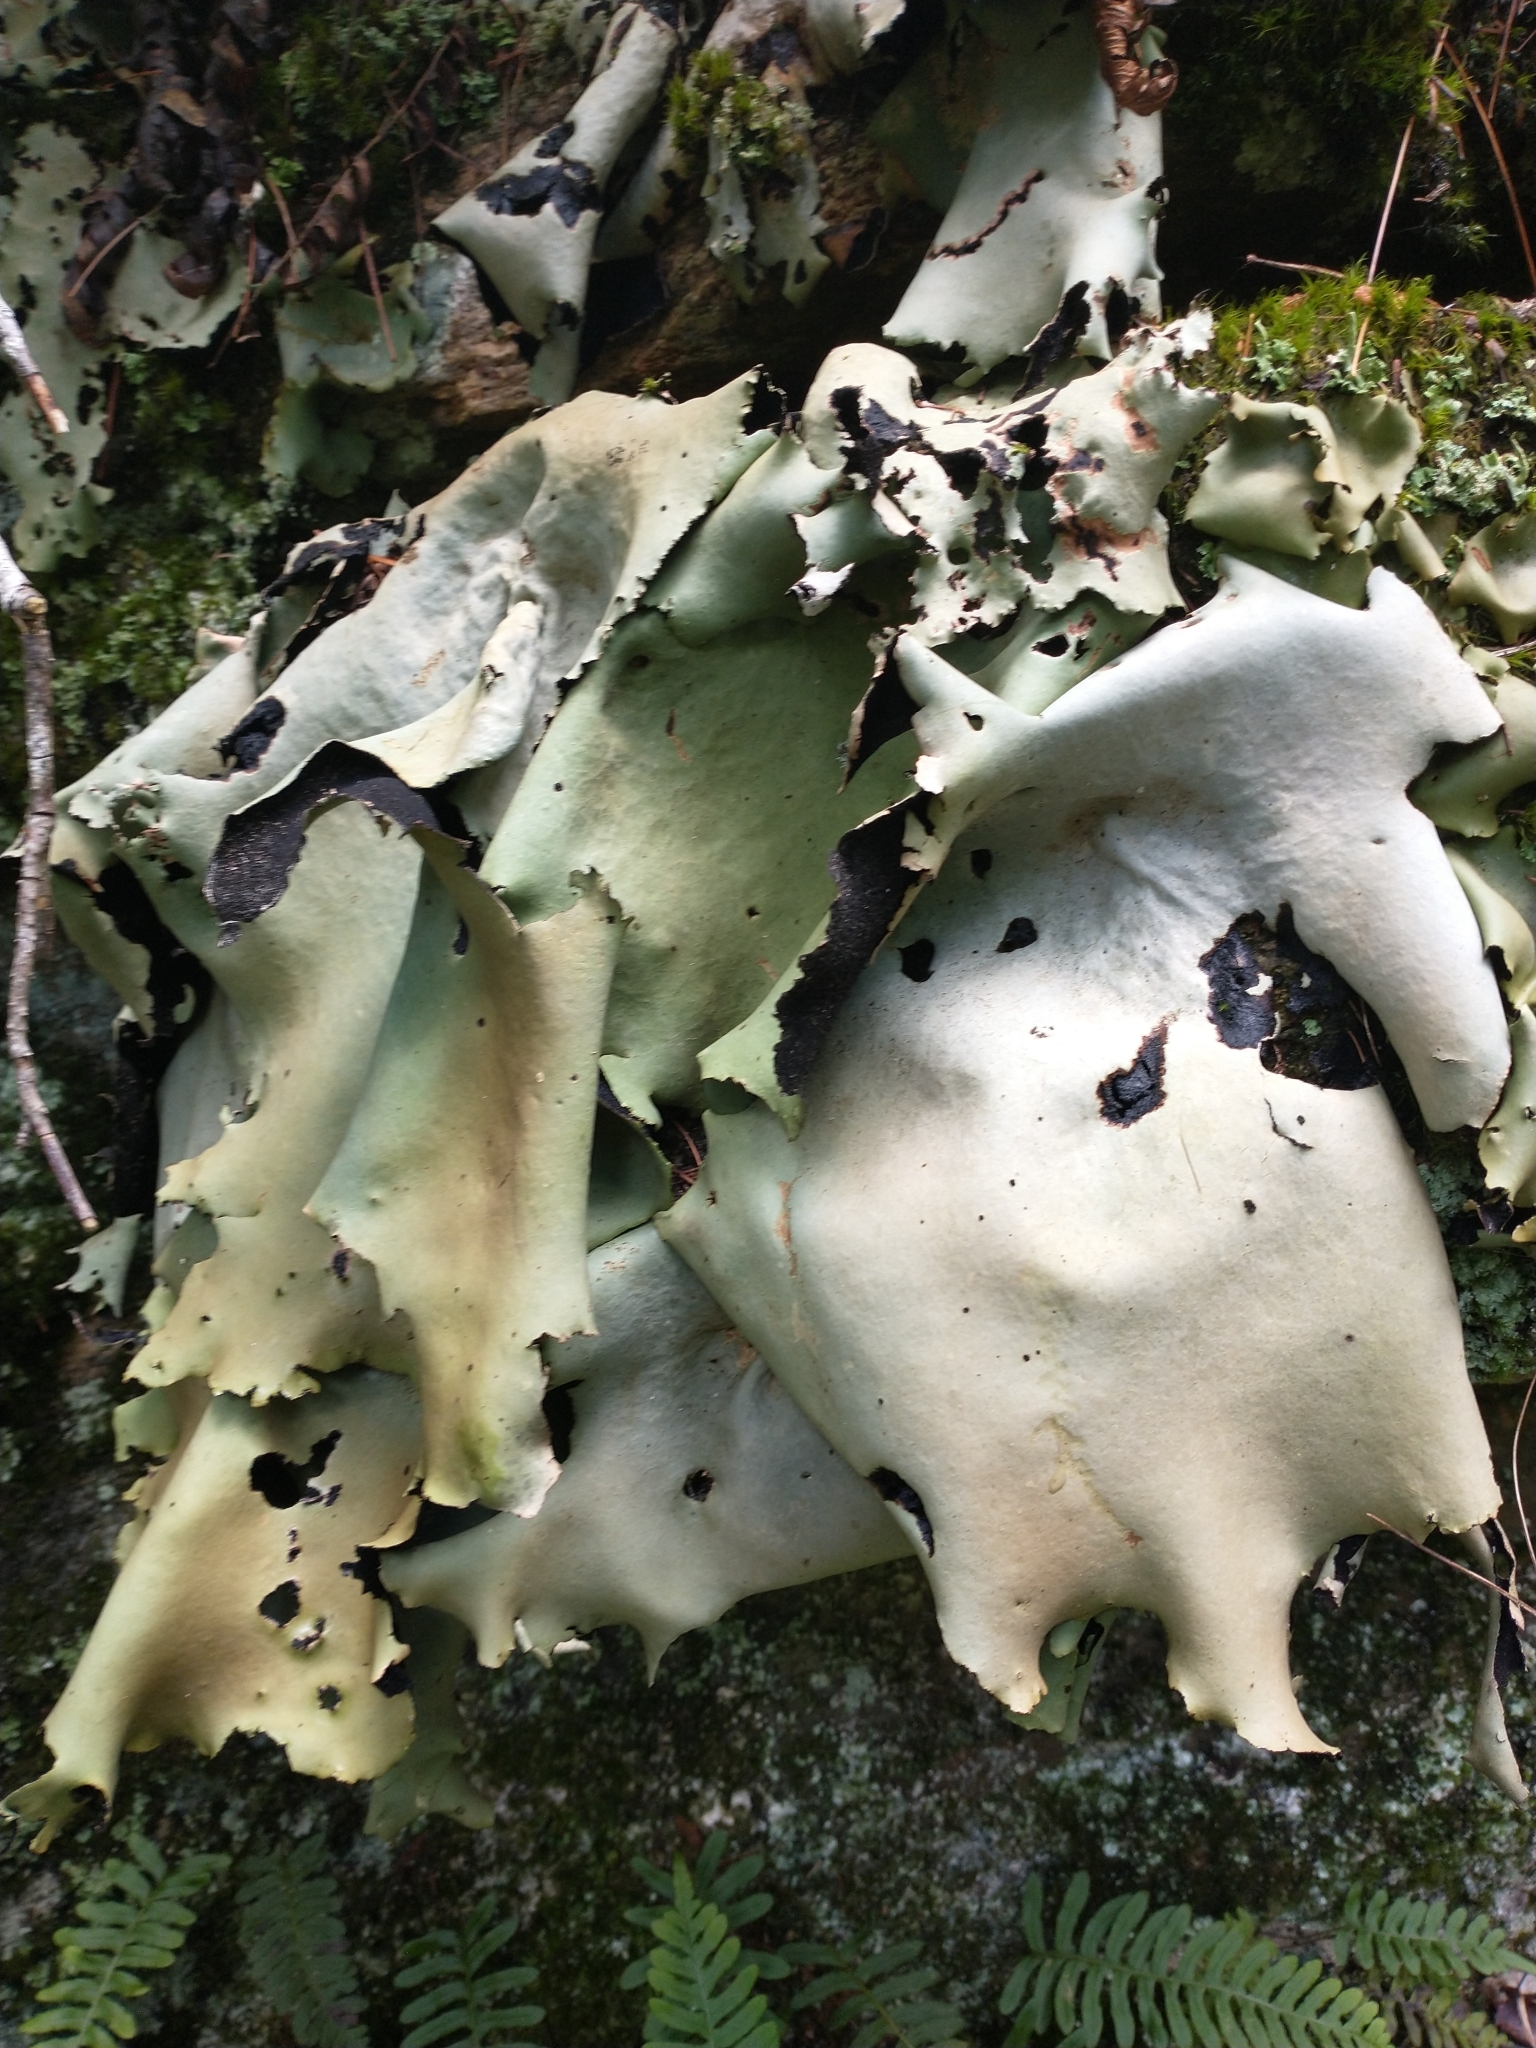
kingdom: Fungi
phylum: Ascomycota
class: Lecanoromycetes
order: Umbilicariales
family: Umbilicariaceae
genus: Umbilicaria
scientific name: Umbilicaria mammulata
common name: Smooth rock tripe
